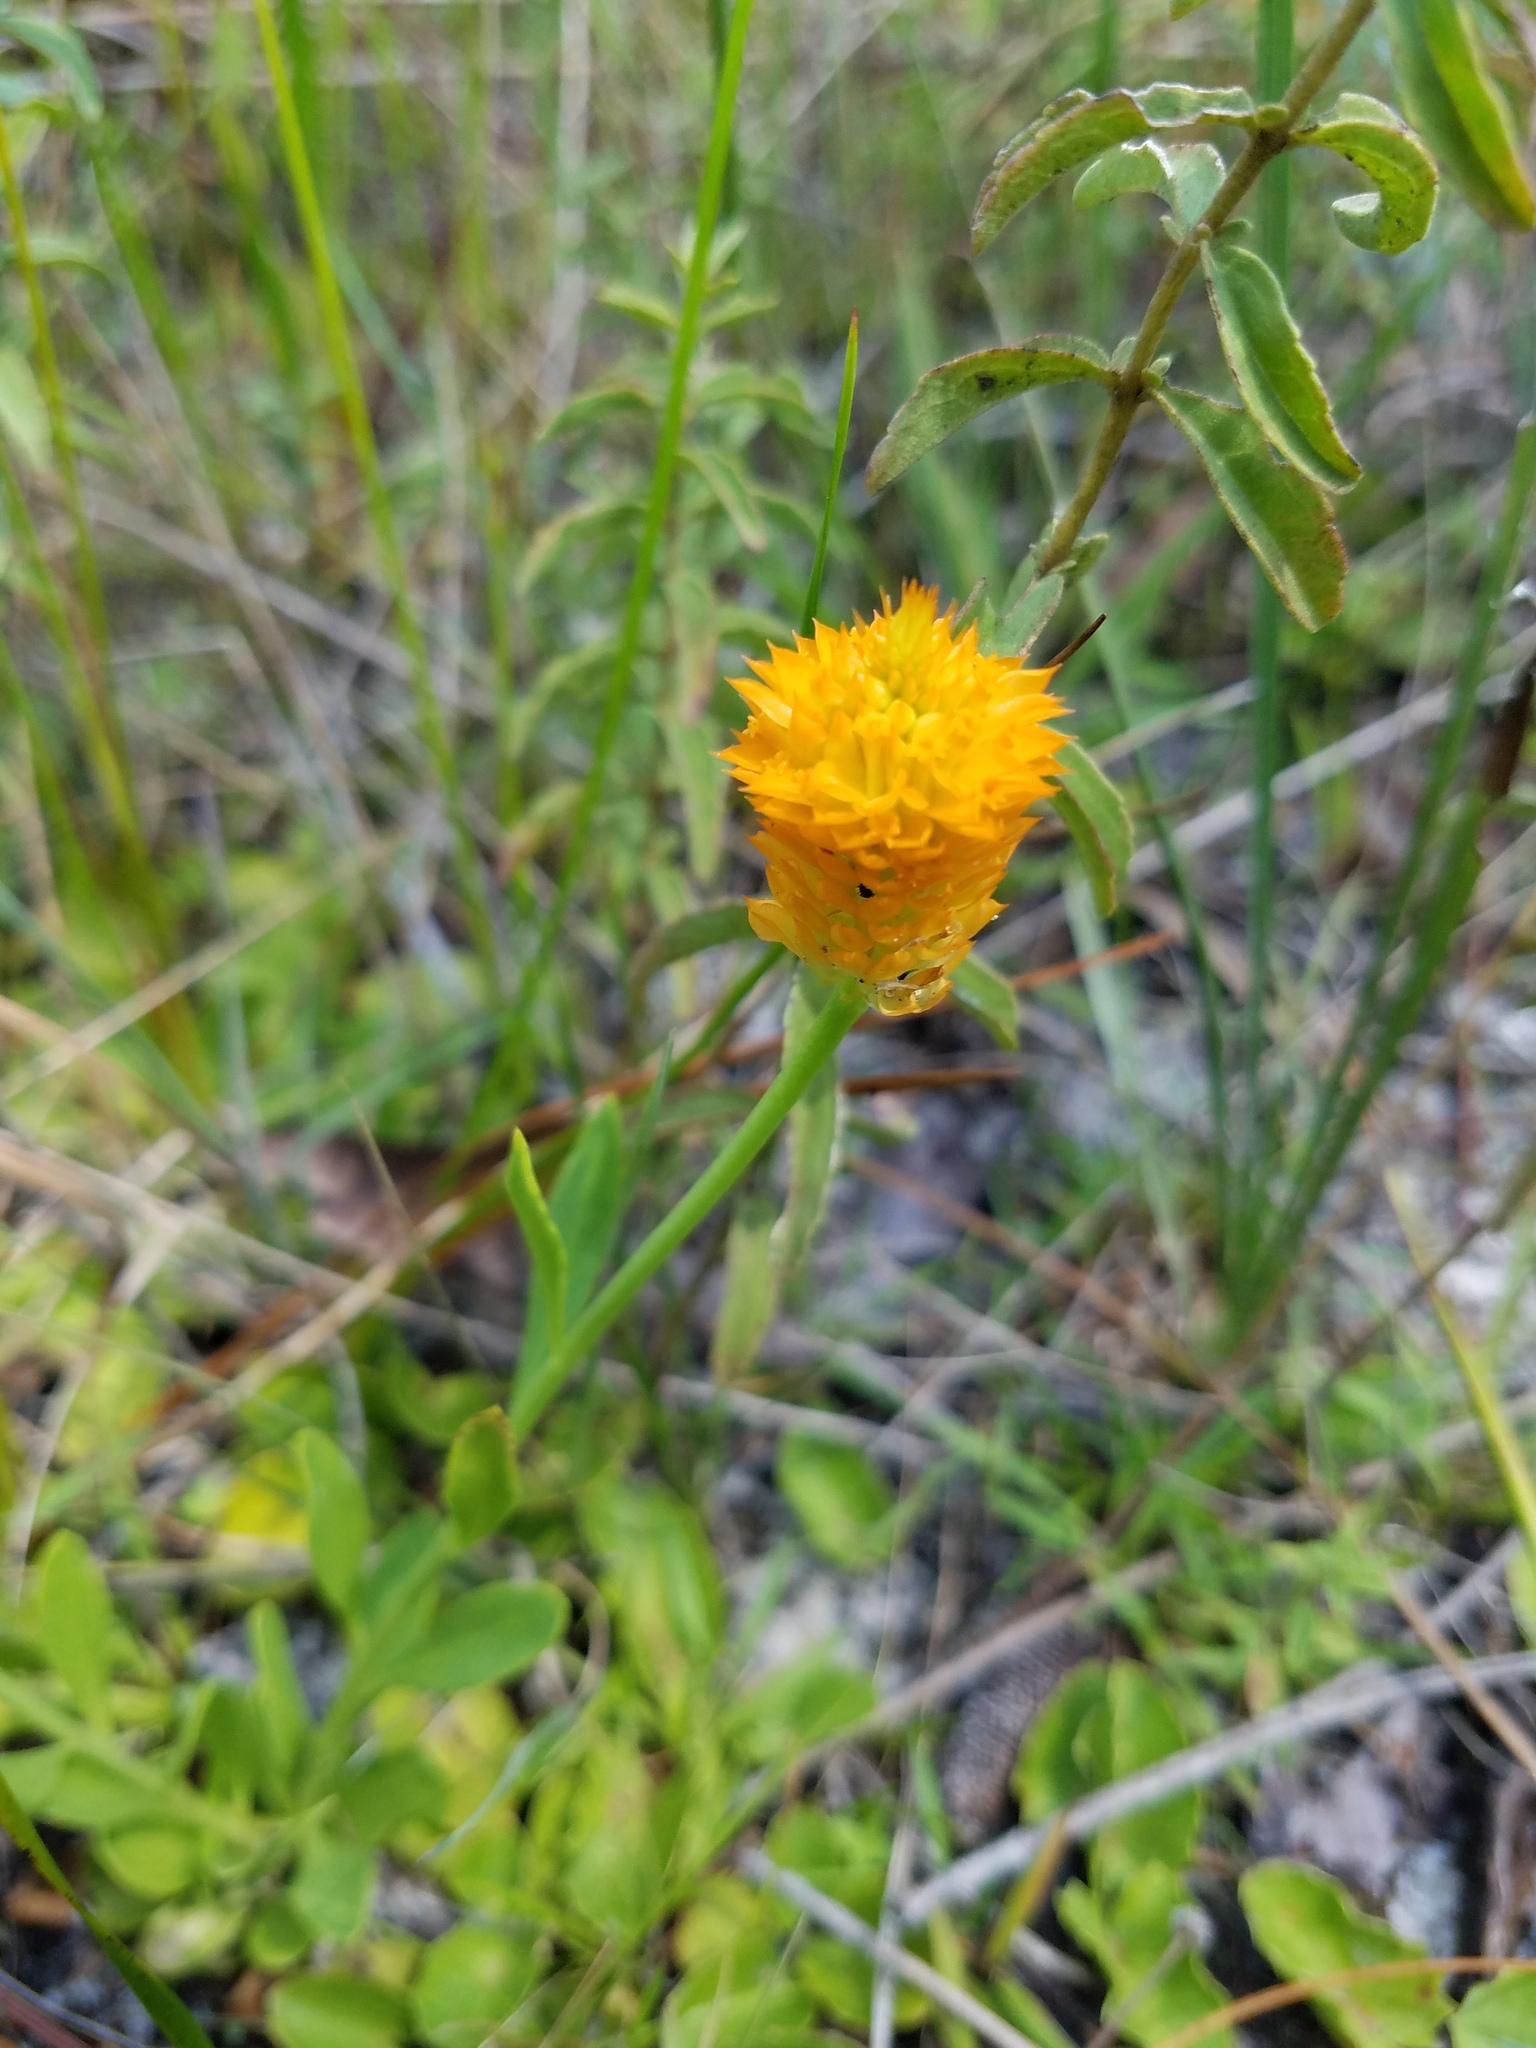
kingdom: Plantae
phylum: Tracheophyta
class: Magnoliopsida
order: Fabales
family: Polygalaceae
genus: Polygala
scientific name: Polygala lutea
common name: Orange milkwort
